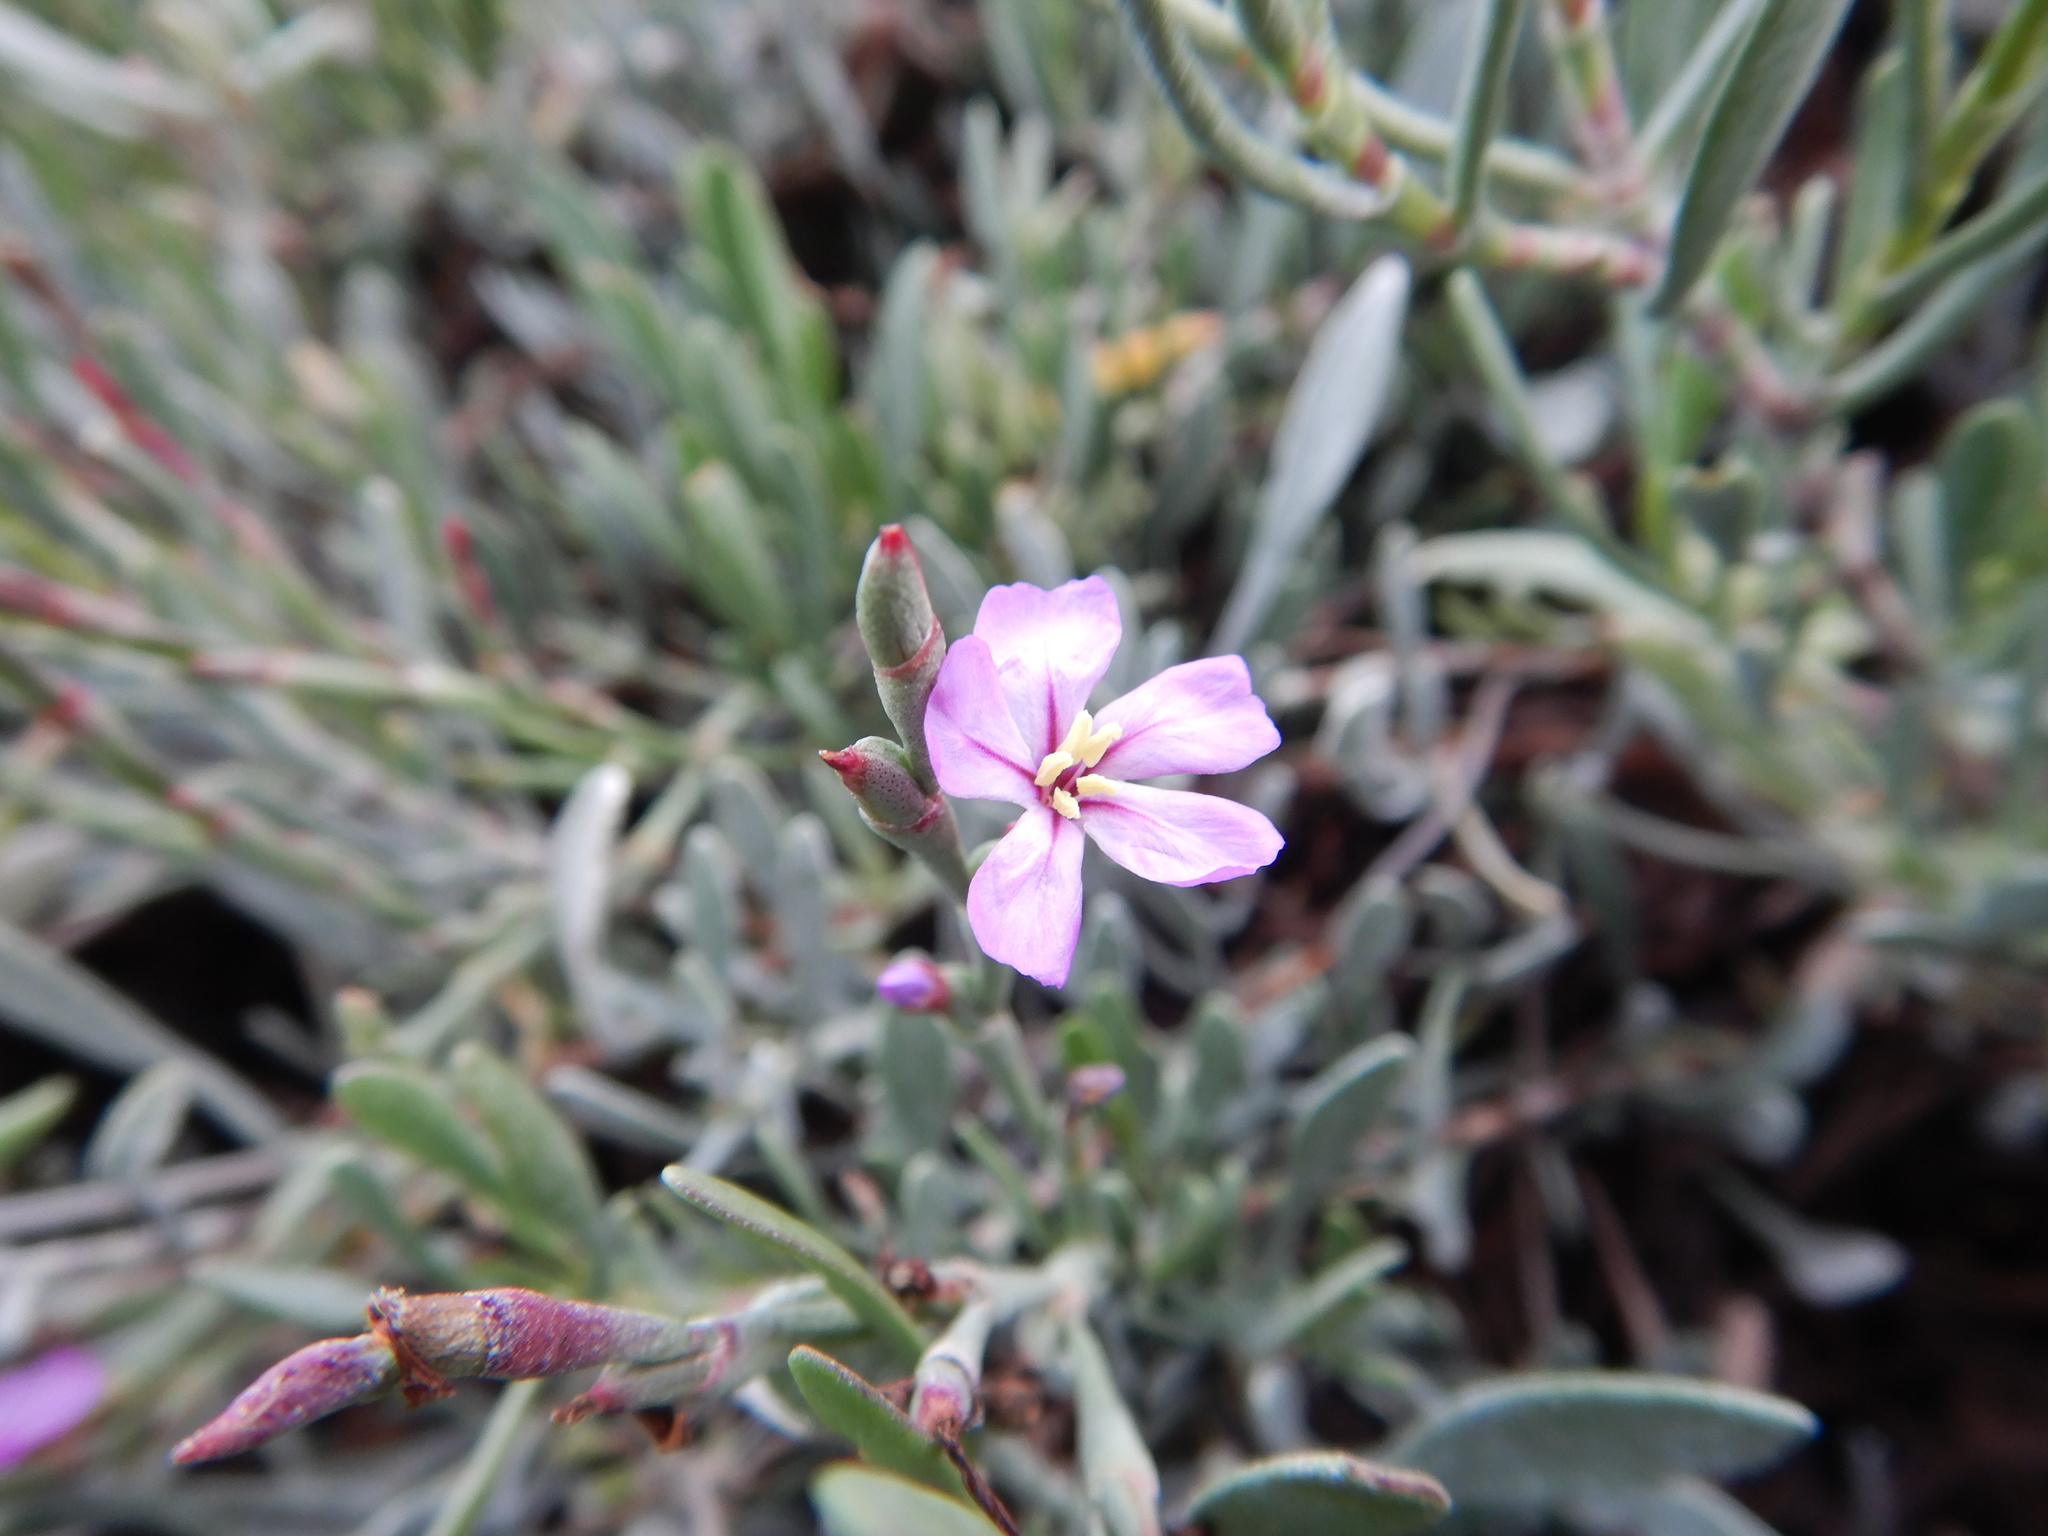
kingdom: Plantae
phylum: Tracheophyta
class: Magnoliopsida
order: Caryophyllales
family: Plumbaginaceae
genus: Limoniastrum
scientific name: Limoniastrum monopetalum
